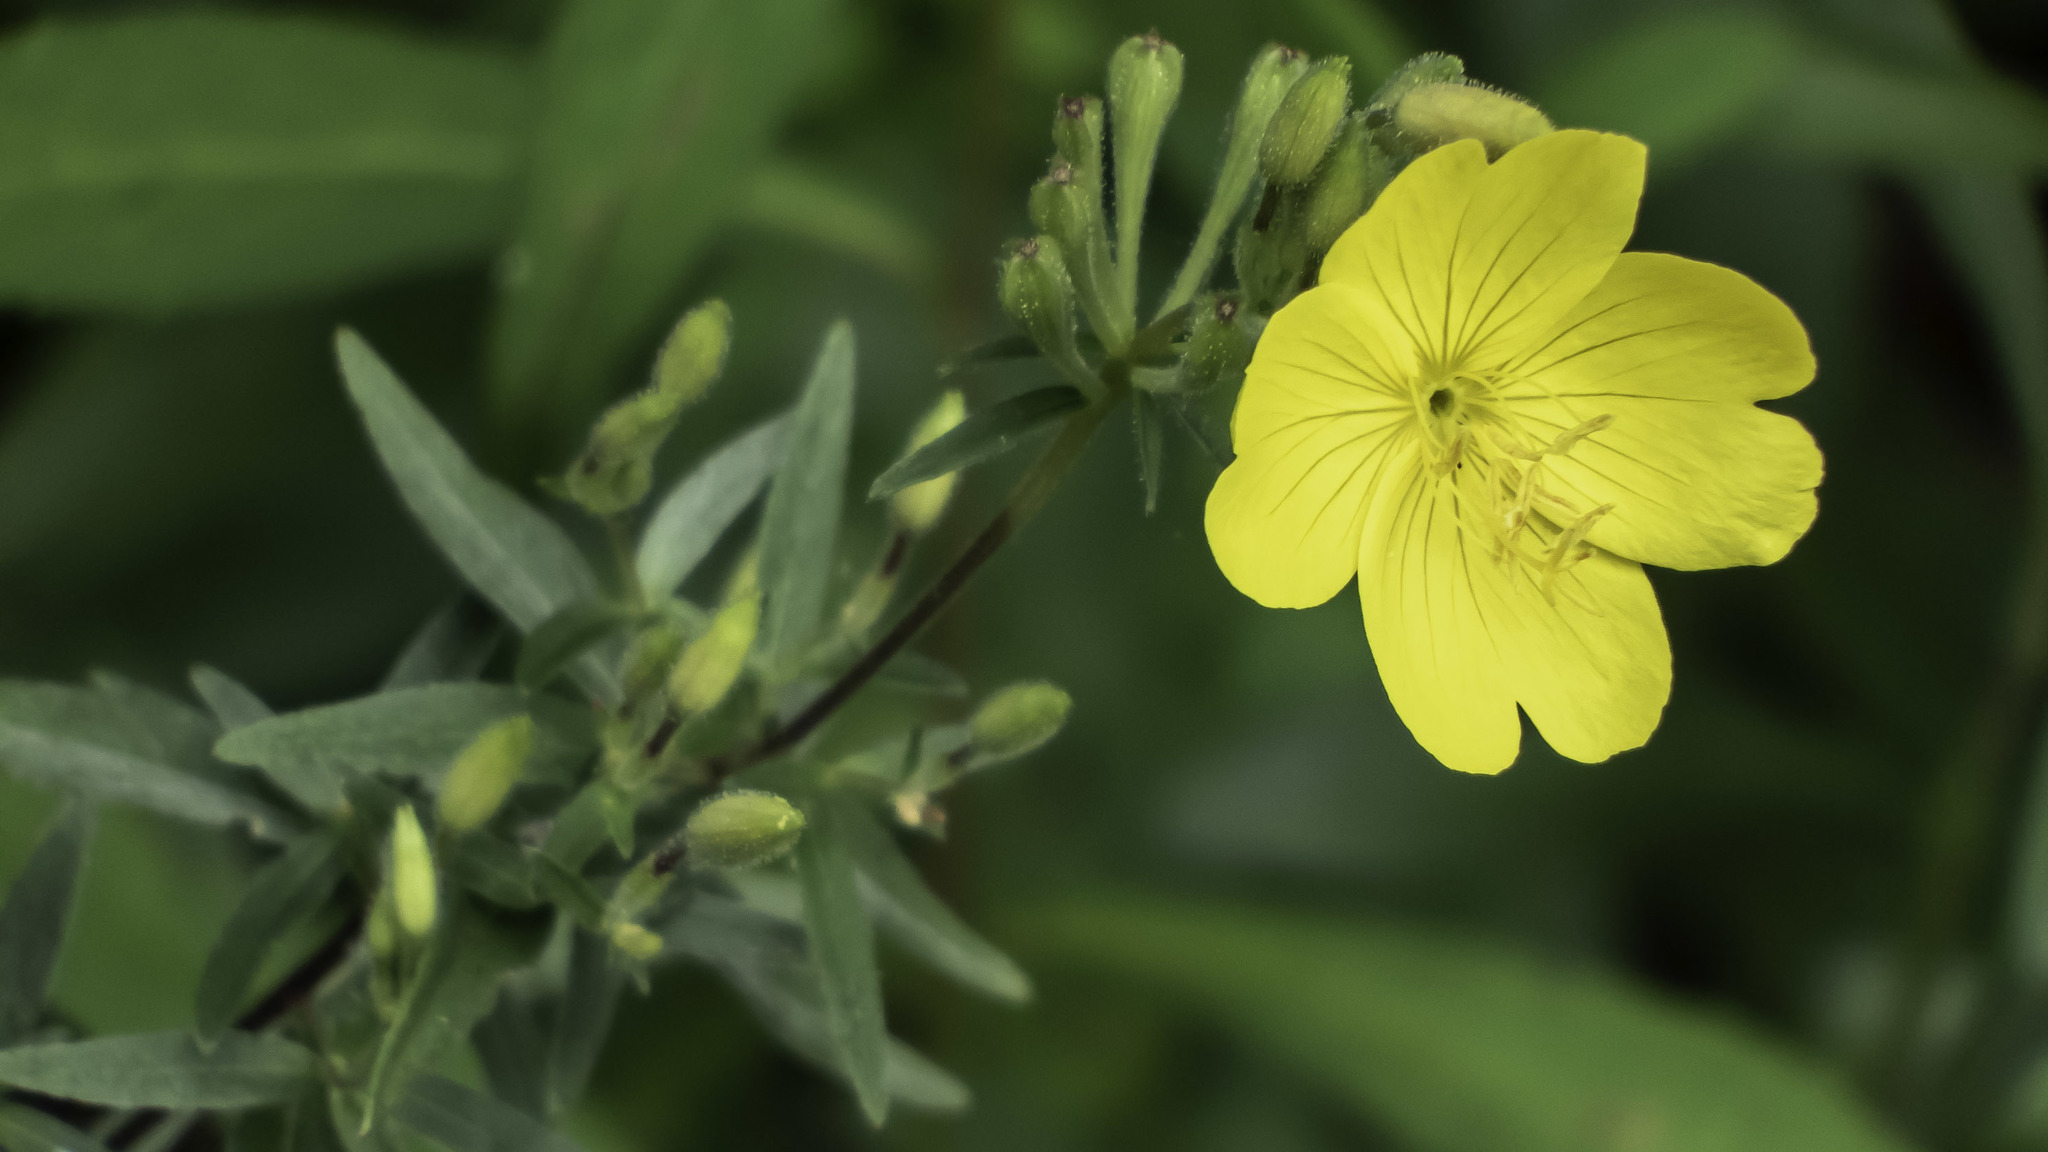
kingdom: Plantae
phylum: Tracheophyta
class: Magnoliopsida
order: Myrtales
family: Onagraceae
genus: Oenothera
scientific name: Oenothera fruticosa
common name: Southern sundrops
